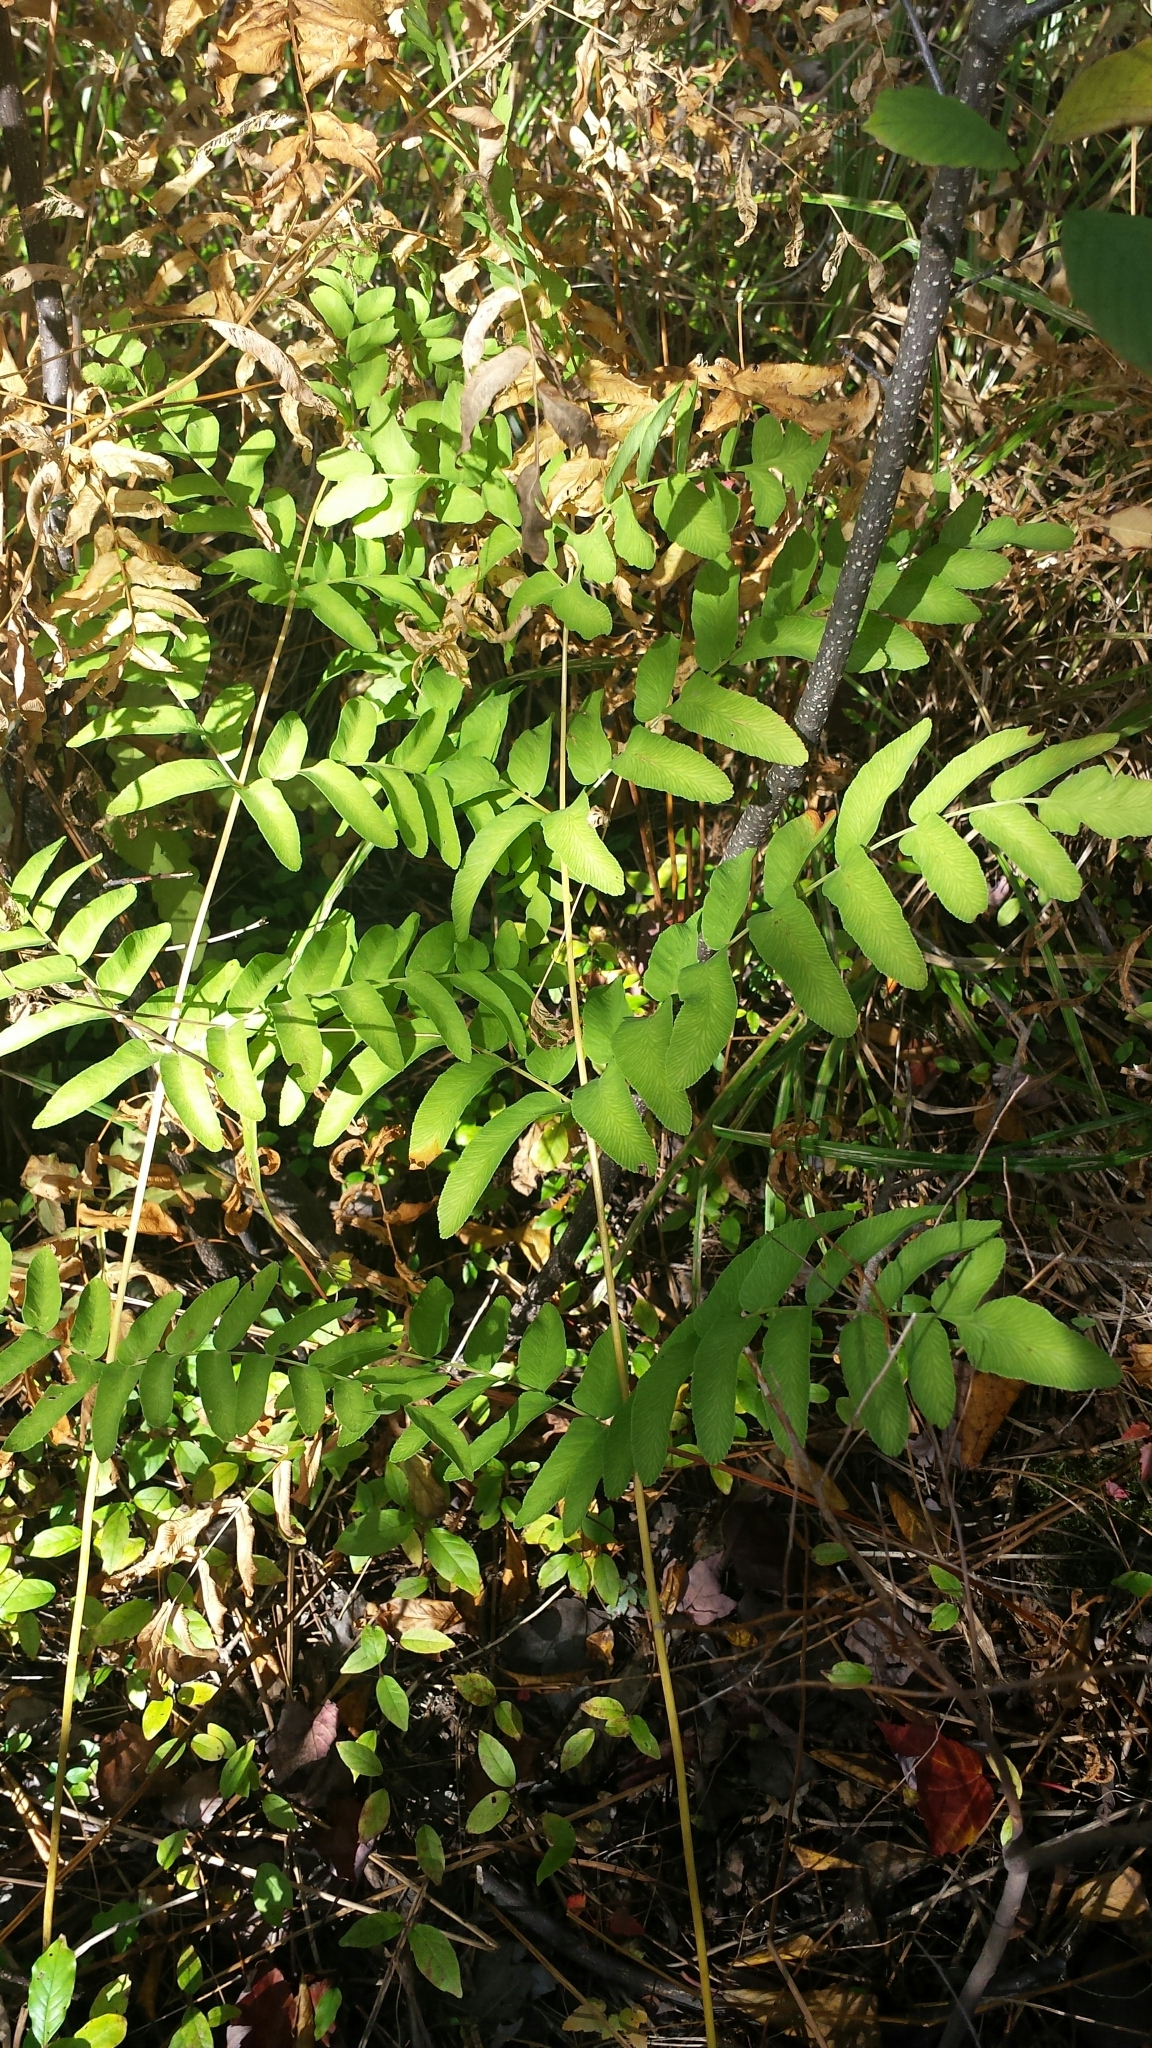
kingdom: Plantae
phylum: Tracheophyta
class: Polypodiopsida
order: Osmundales
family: Osmundaceae
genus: Osmunda
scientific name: Osmunda spectabilis
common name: American royal fern
